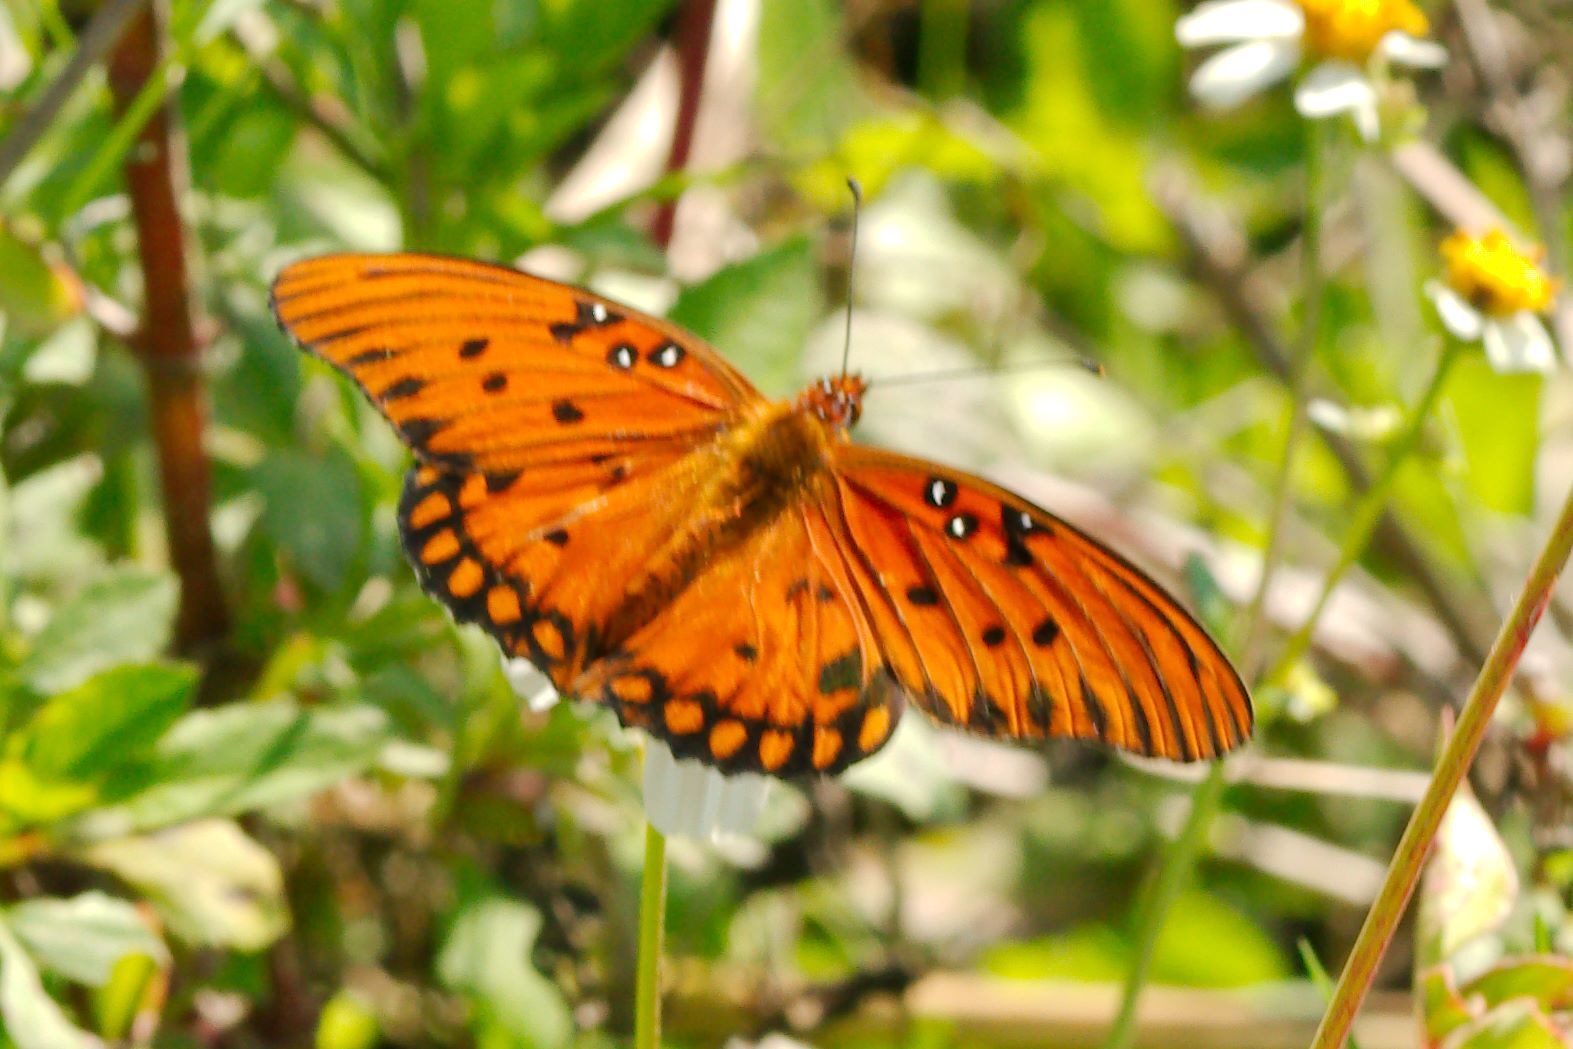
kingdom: Animalia
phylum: Arthropoda
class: Insecta
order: Lepidoptera
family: Nymphalidae
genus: Dione
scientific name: Dione vanillae
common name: Gulf fritillary
